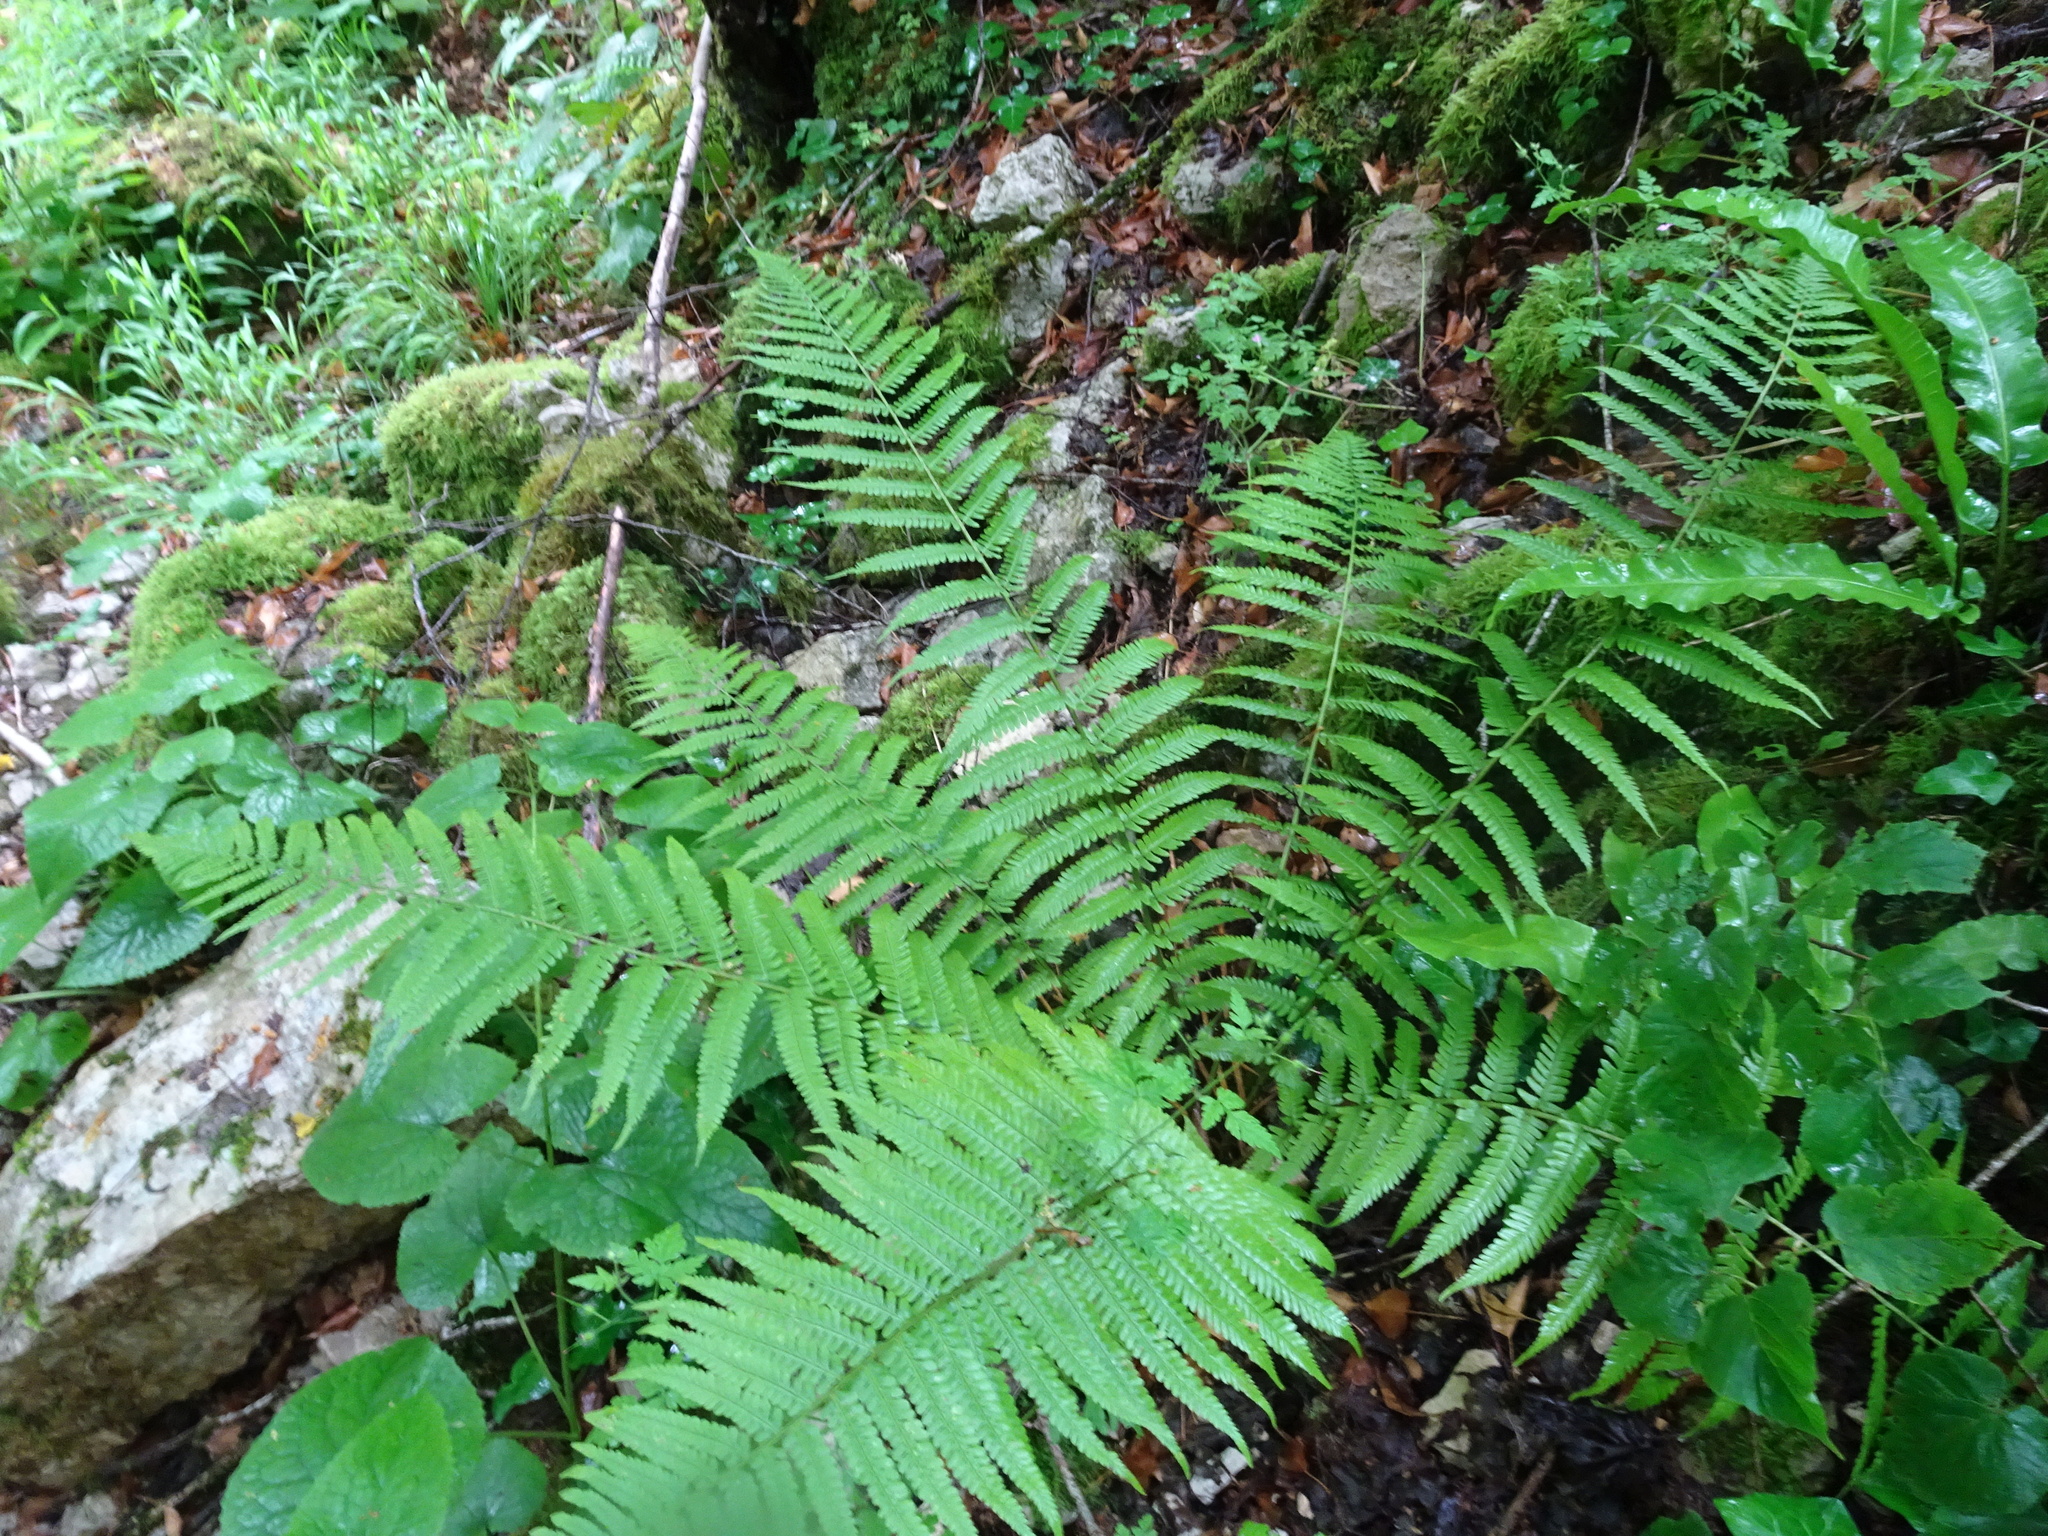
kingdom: Plantae
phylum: Tracheophyta
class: Polypodiopsida
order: Polypodiales
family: Dryopteridaceae
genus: Dryopteris
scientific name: Dryopteris filix-mas
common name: Male fern
